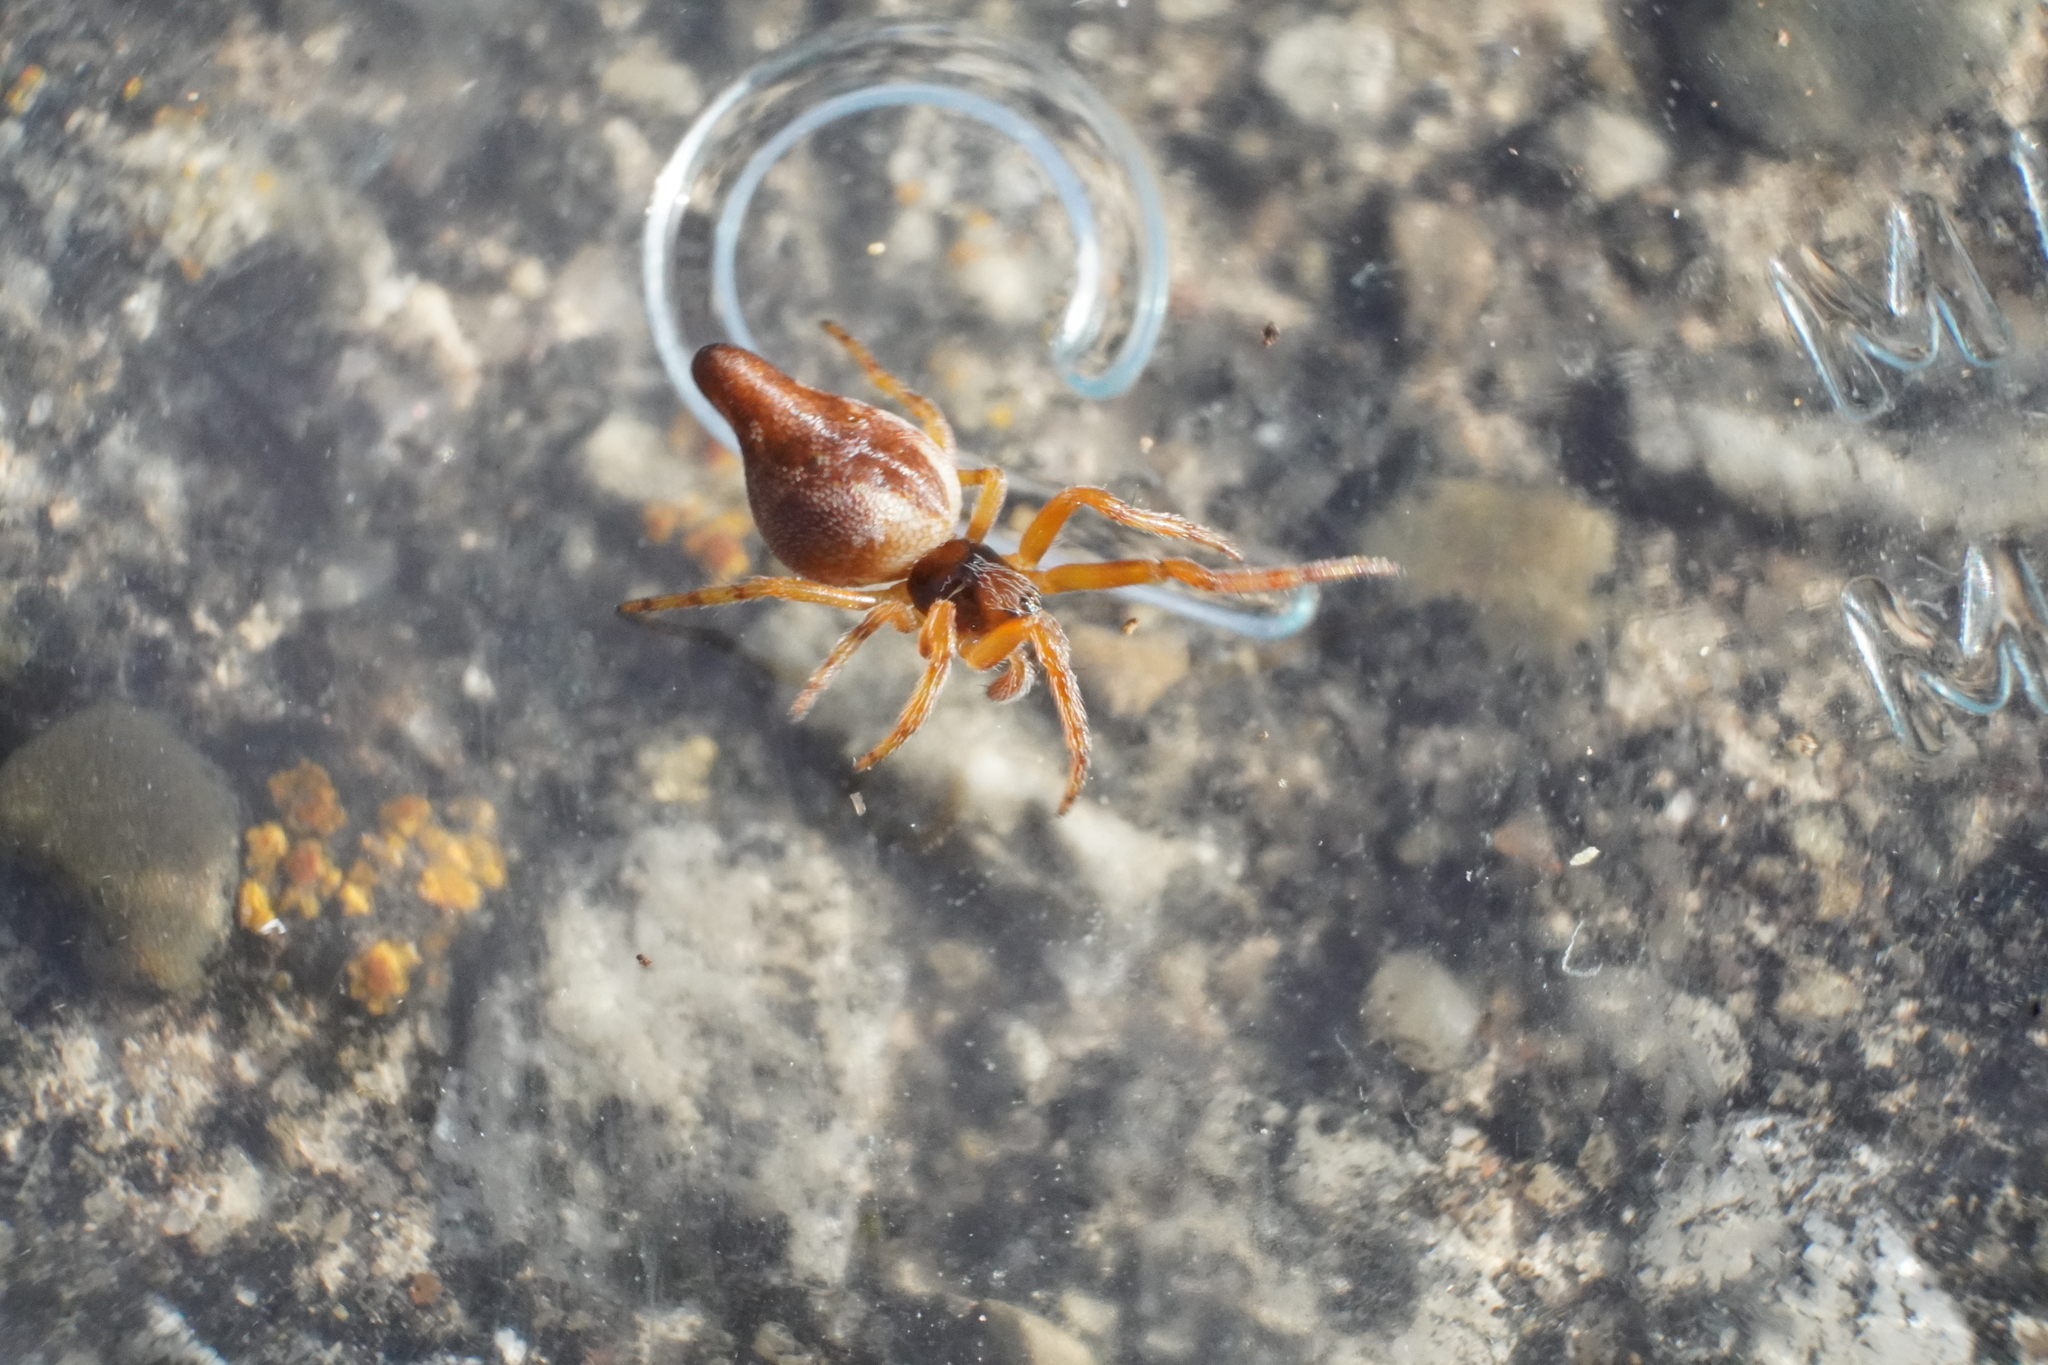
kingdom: Animalia
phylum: Arthropoda
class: Arachnida
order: Araneae
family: Araneidae
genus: Cyclosa
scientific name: Cyclosa conica
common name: Conical trashline orbweaver
